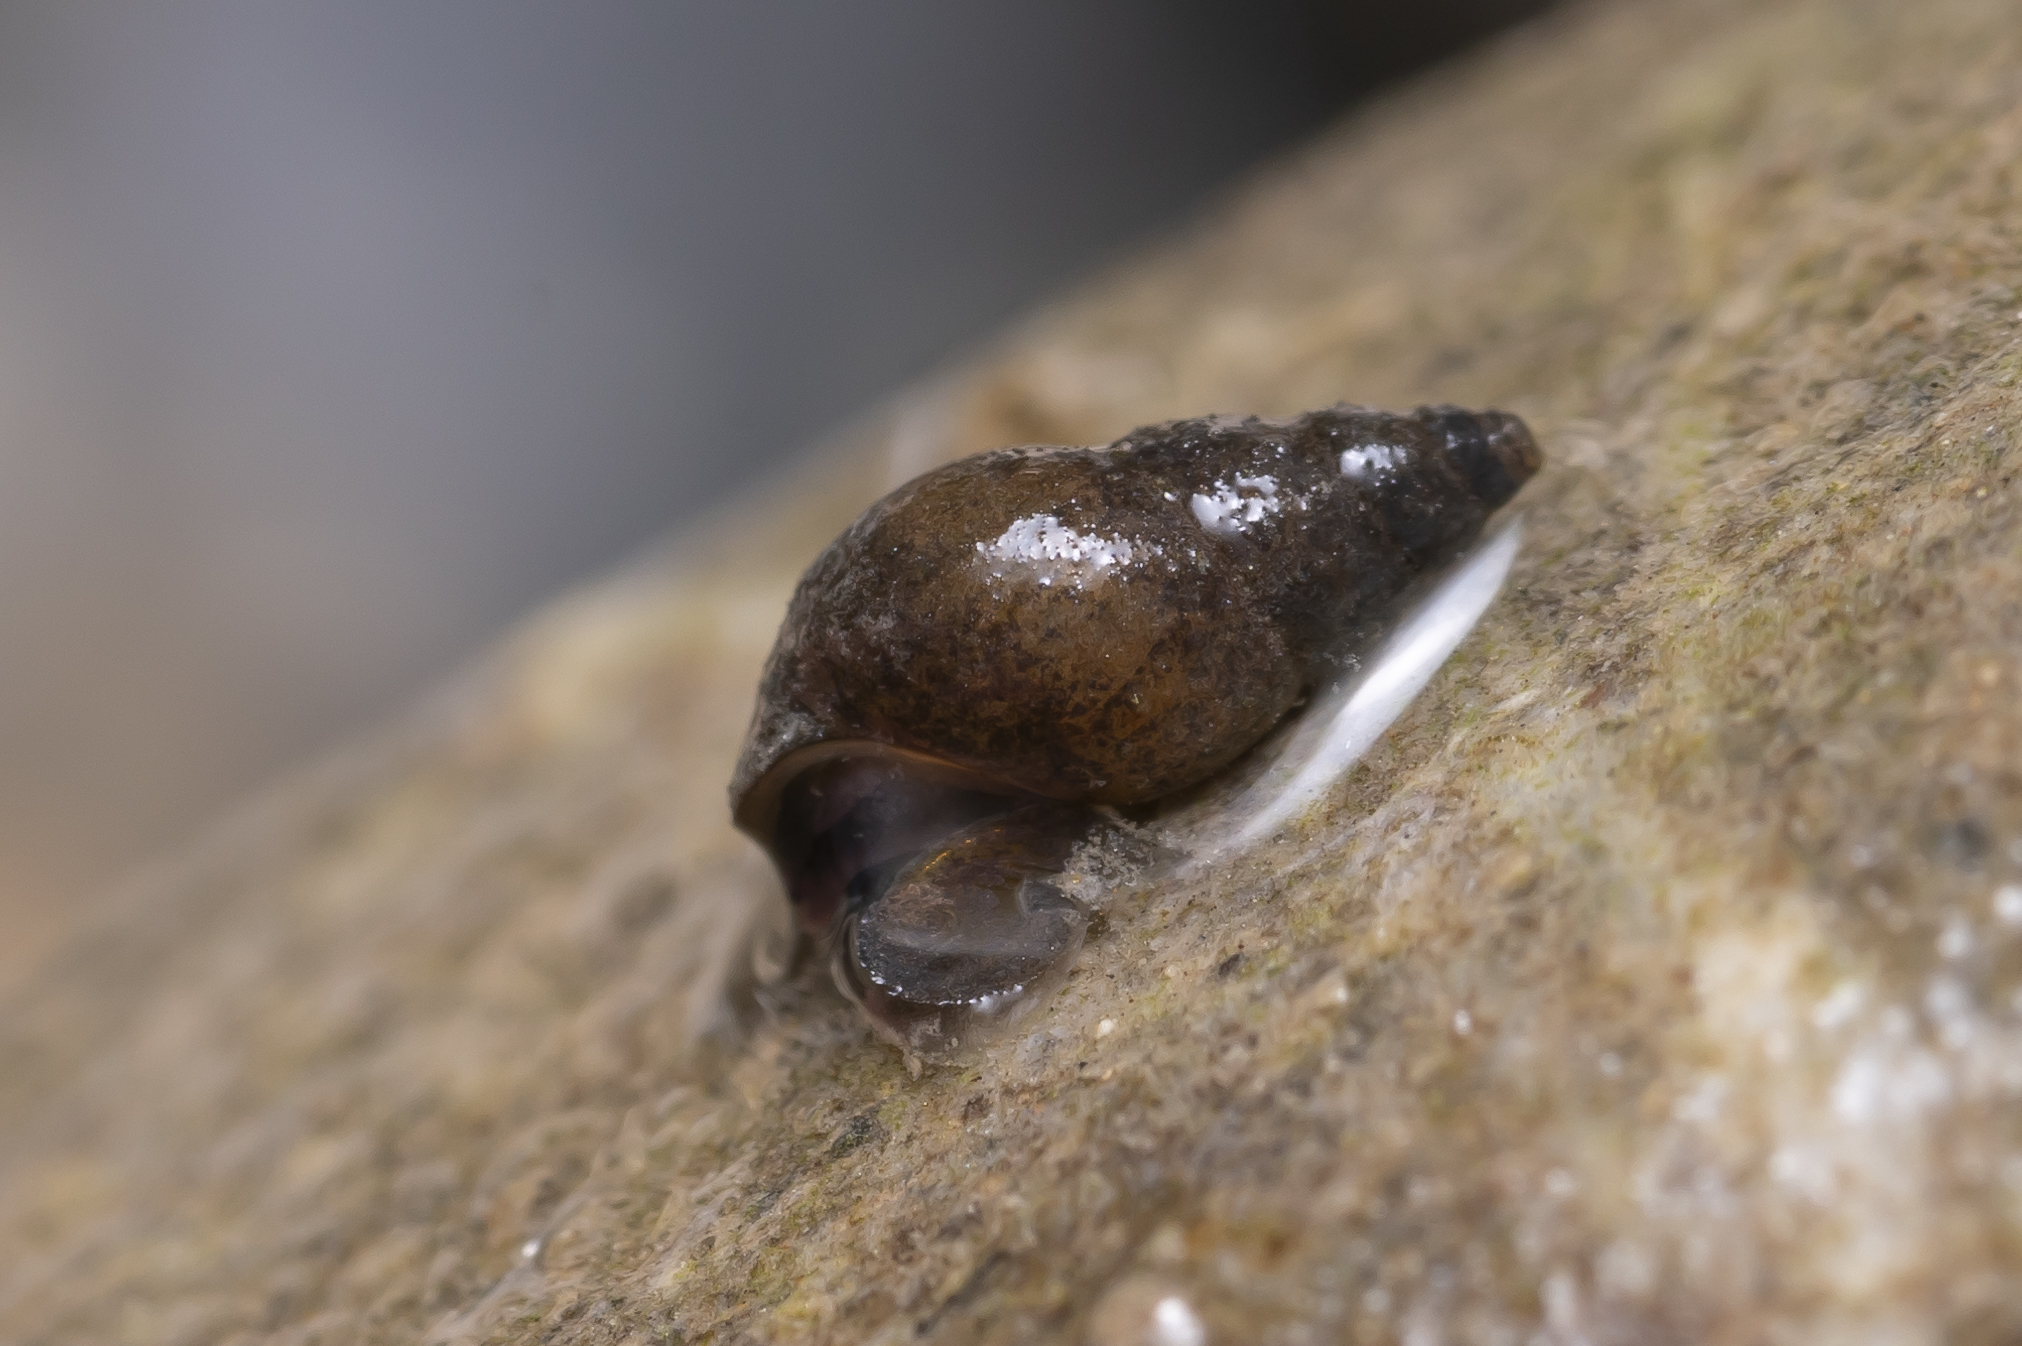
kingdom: Animalia
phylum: Mollusca
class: Gastropoda
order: Littorinimorpha
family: Tateidae
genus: Potamopyrgus
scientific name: Potamopyrgus antipodarum
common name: Jenkins' spire snail
